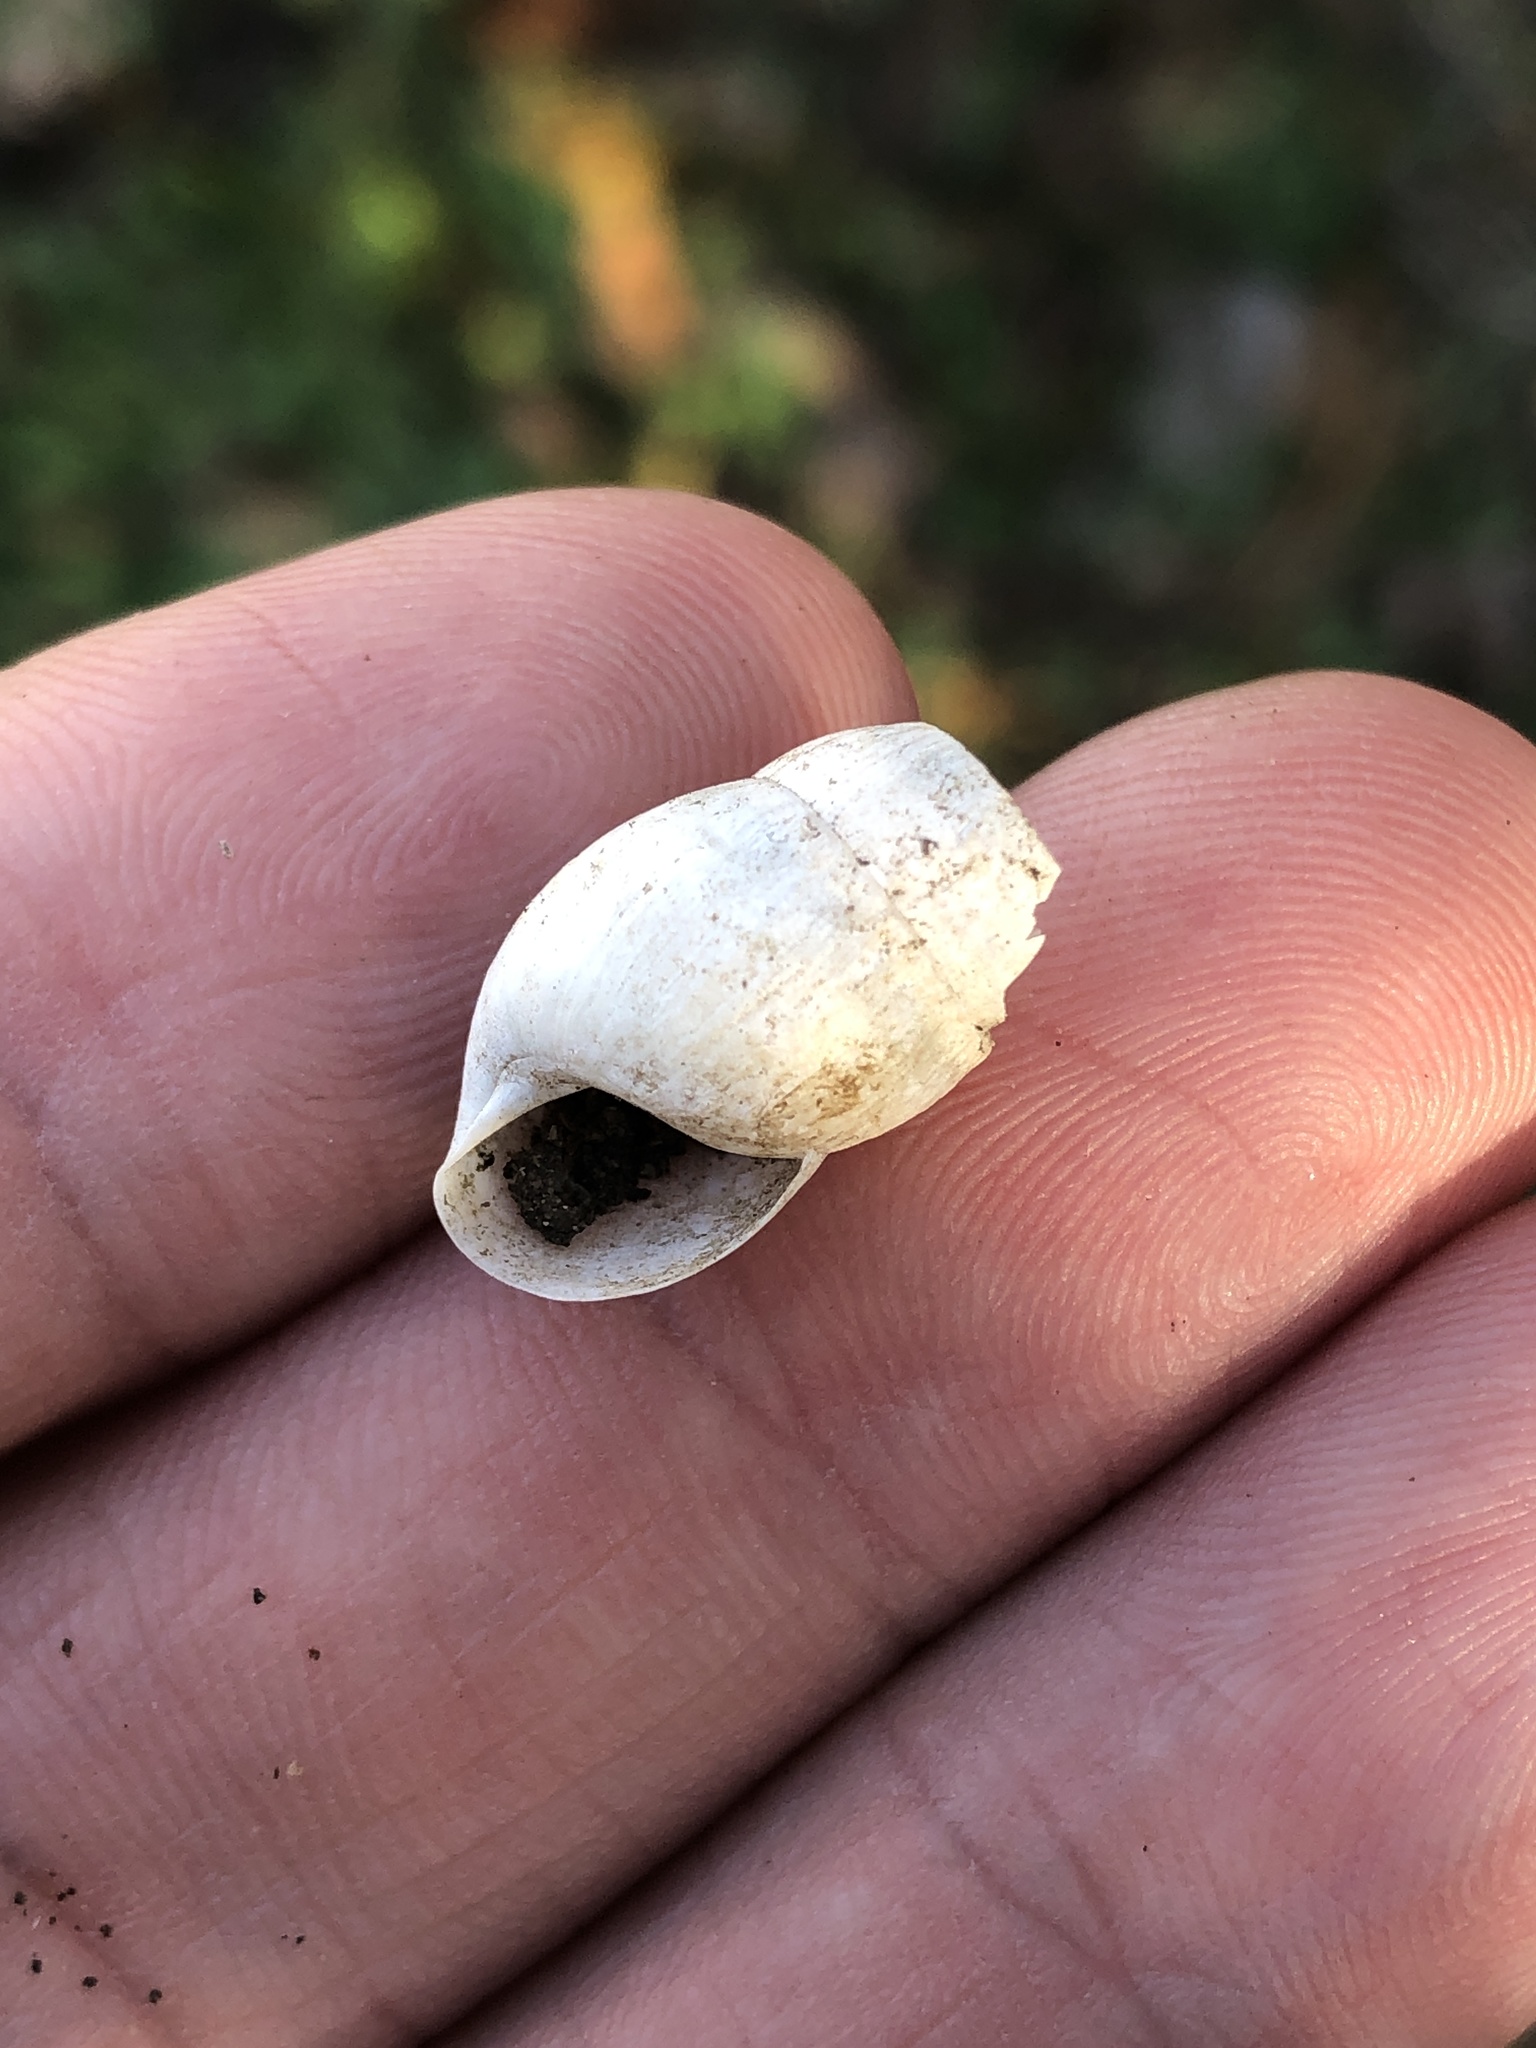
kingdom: Animalia
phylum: Mollusca
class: Gastropoda
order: Stylommatophora
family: Achatinidae
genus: Rumina
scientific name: Rumina decollata
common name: Decollate snail
